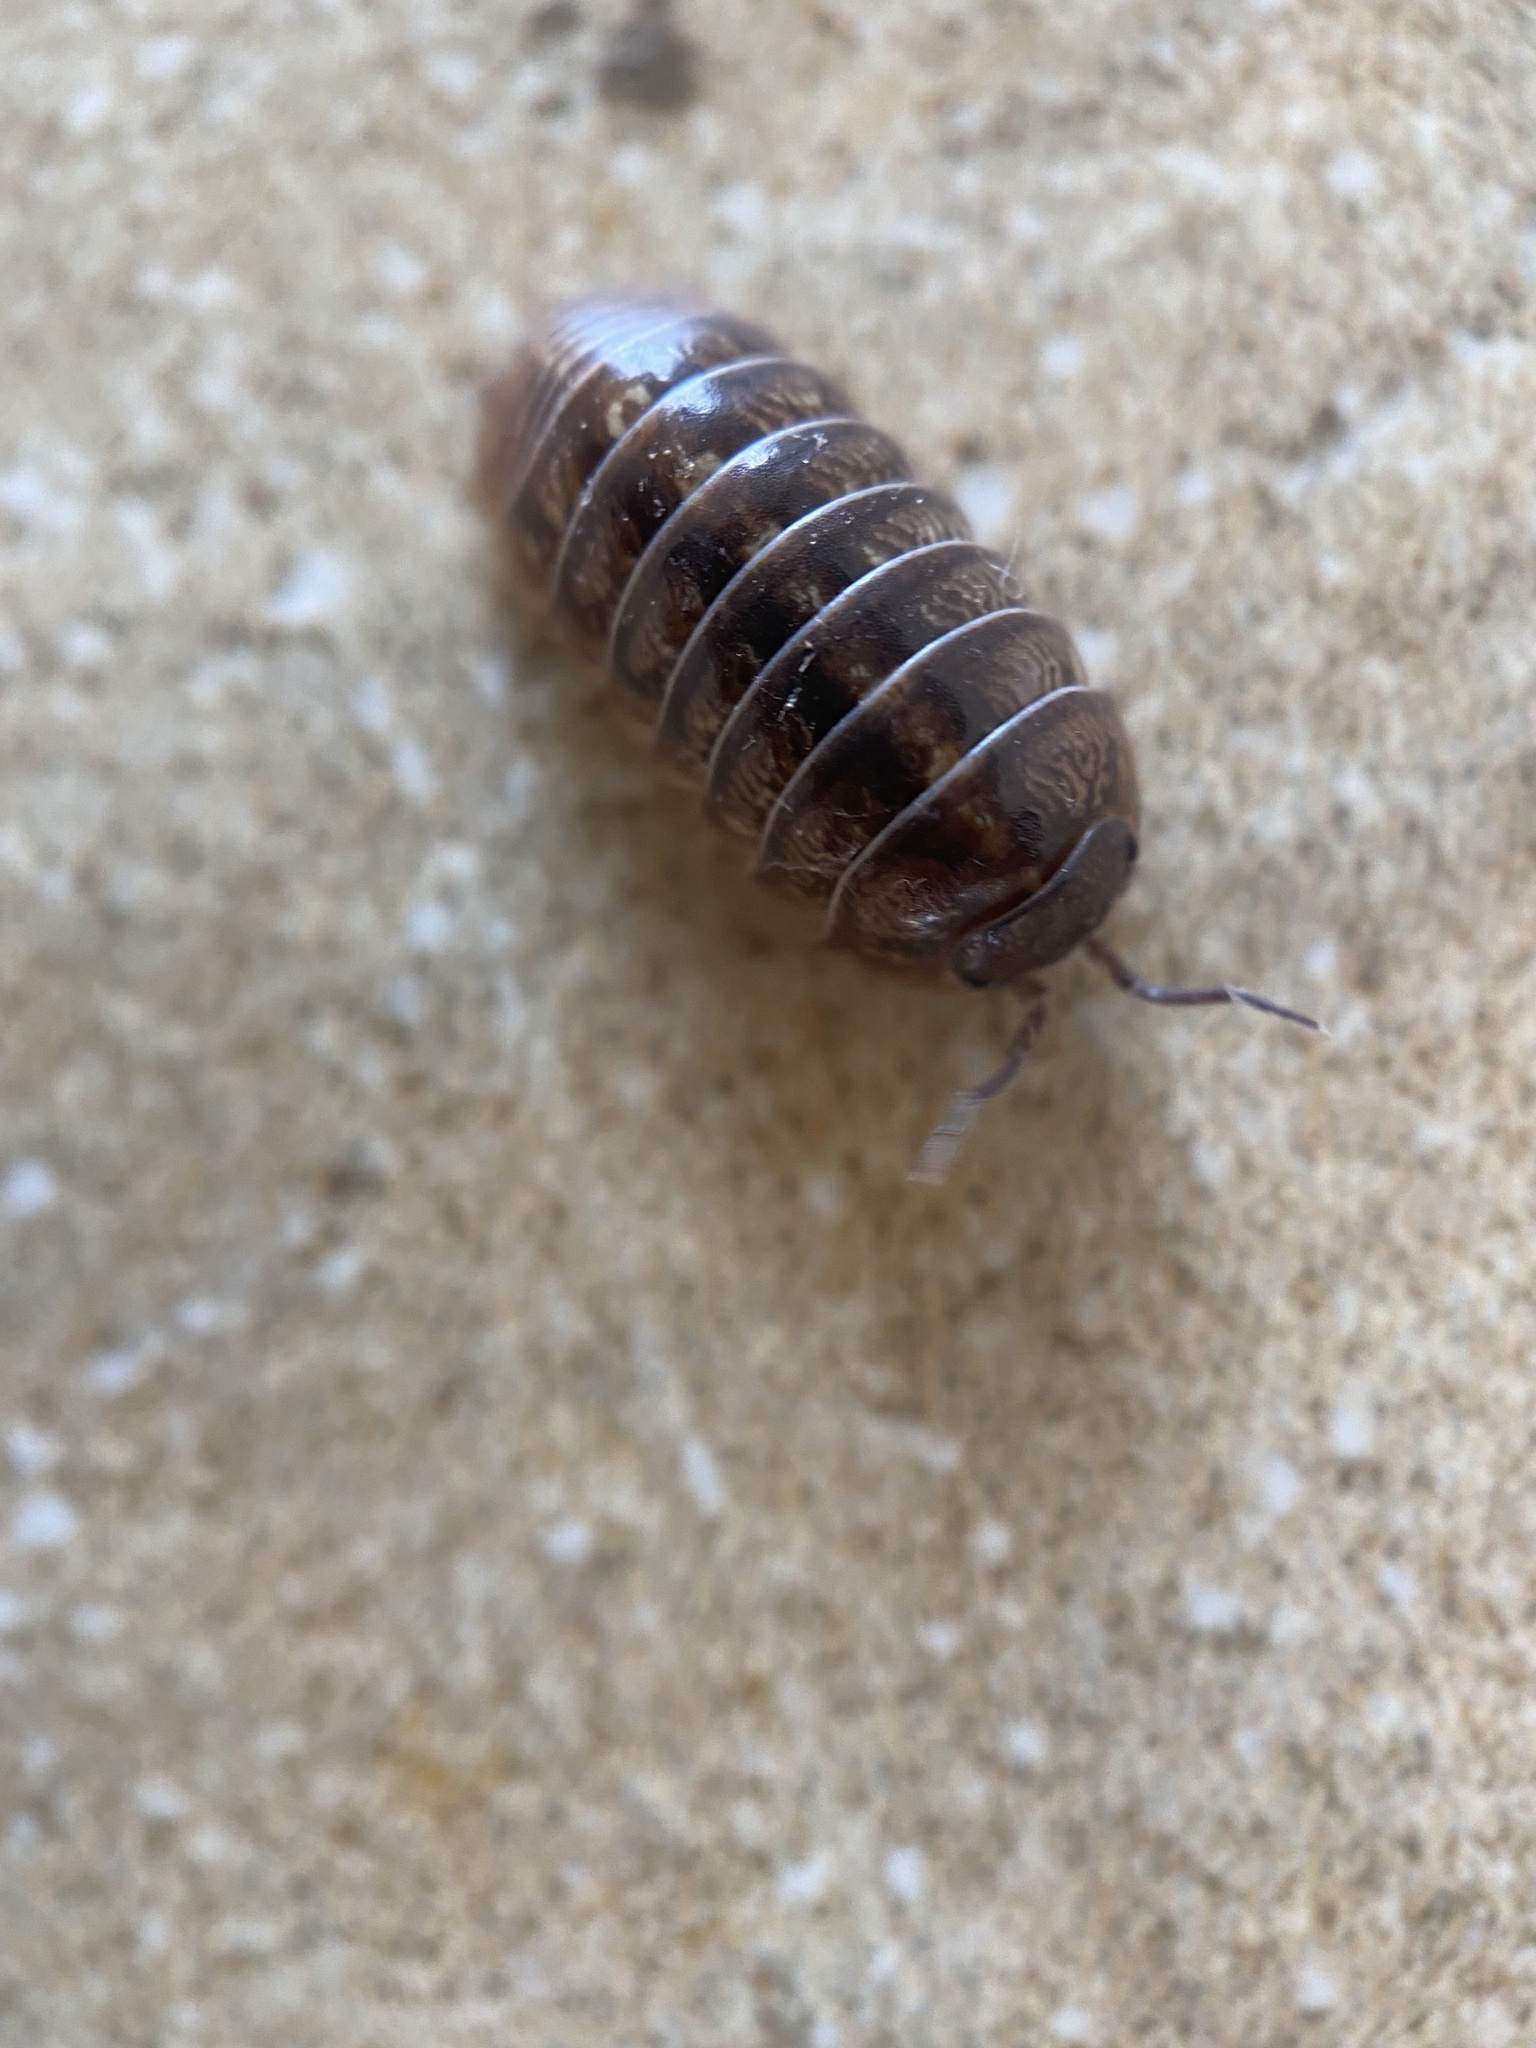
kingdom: Animalia
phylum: Arthropoda
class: Malacostraca
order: Isopoda
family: Armadillidiidae
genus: Armadillidium
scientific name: Armadillidium vulgare
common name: Common pill woodlouse
